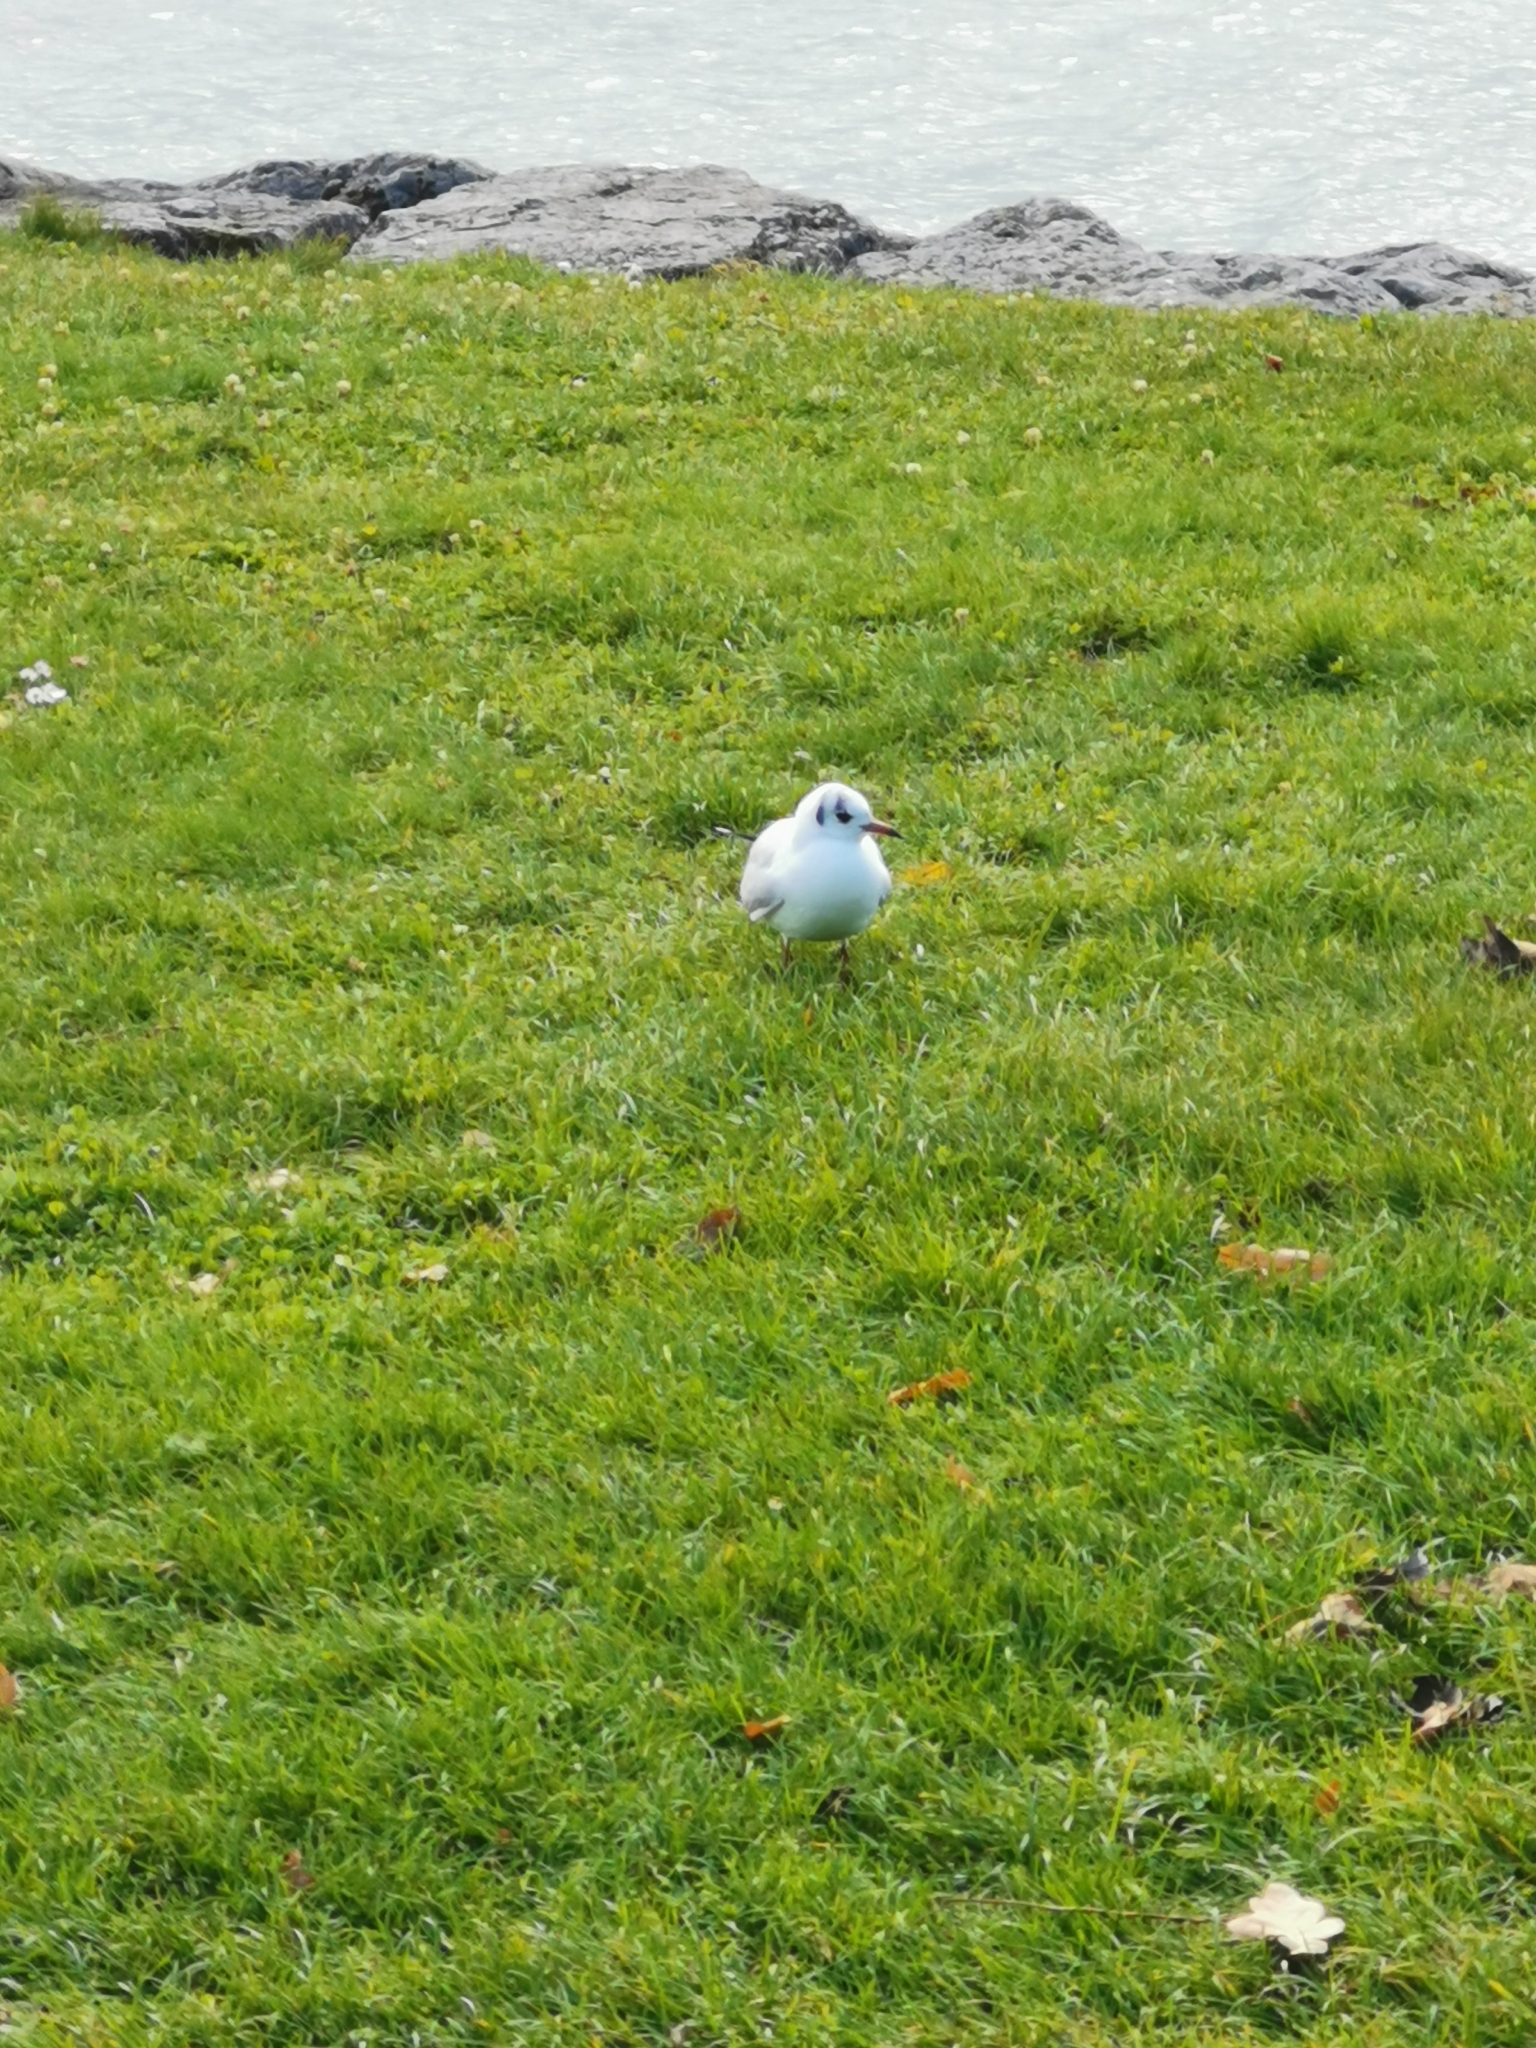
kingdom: Animalia
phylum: Chordata
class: Aves
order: Charadriiformes
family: Laridae
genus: Chroicocephalus
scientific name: Chroicocephalus ridibundus
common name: Black-headed gull
